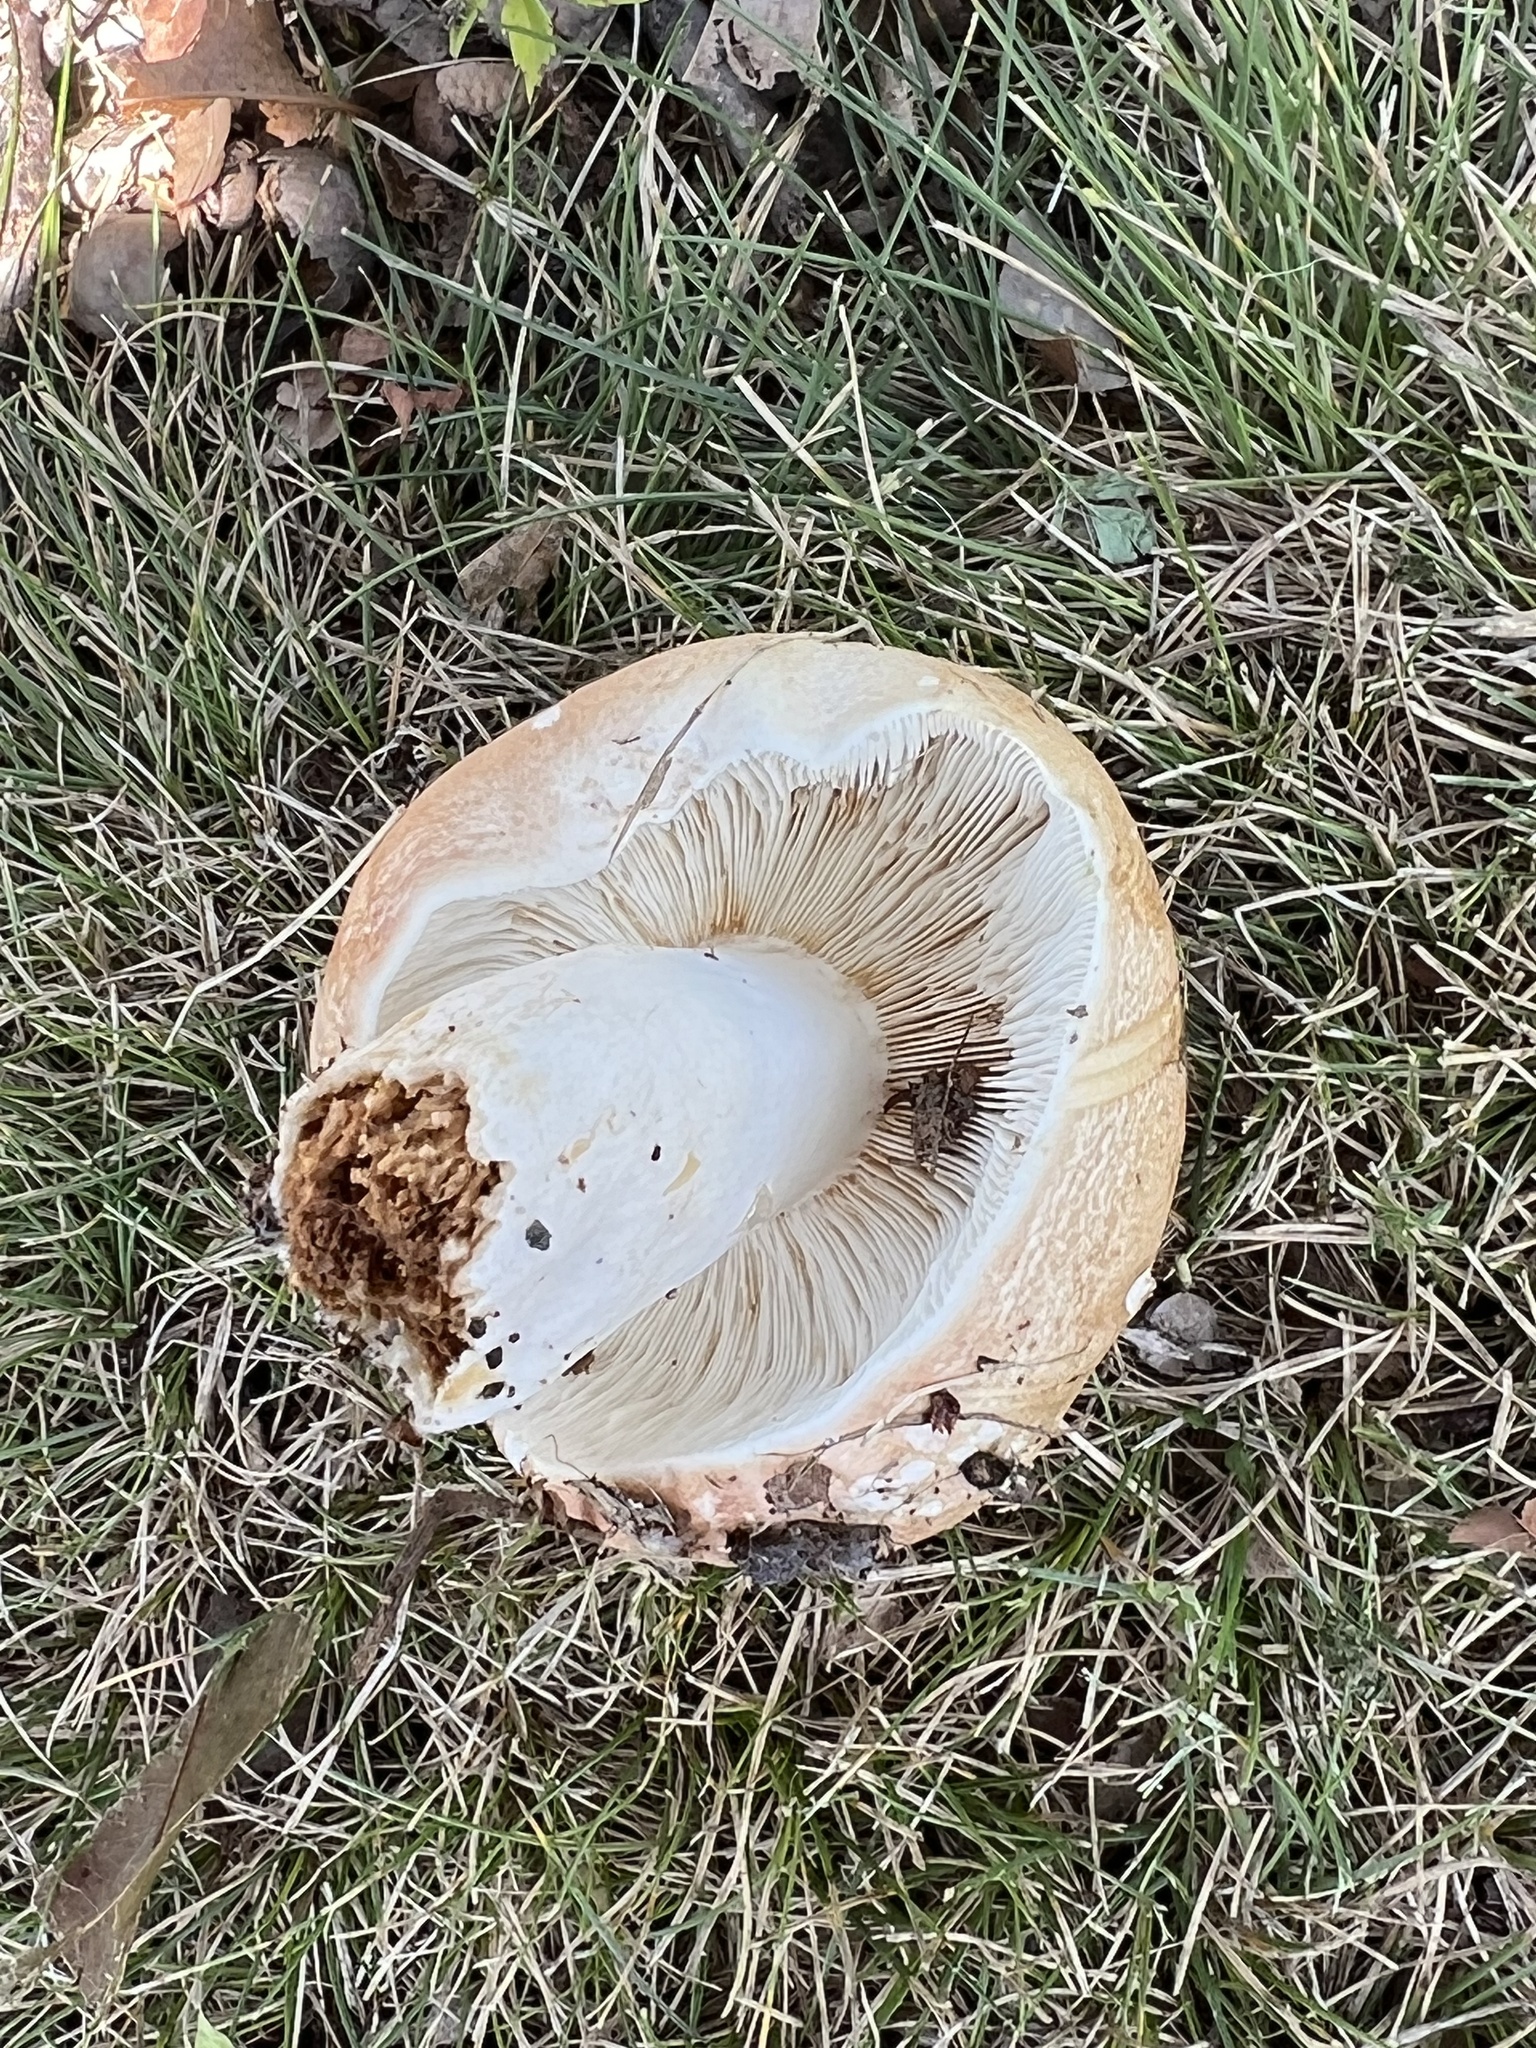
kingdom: Fungi
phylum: Basidiomycota
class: Agaricomycetes
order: Russulales
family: Russulaceae
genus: Russula
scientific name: Russula compacta
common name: Fishbiscuit russula
